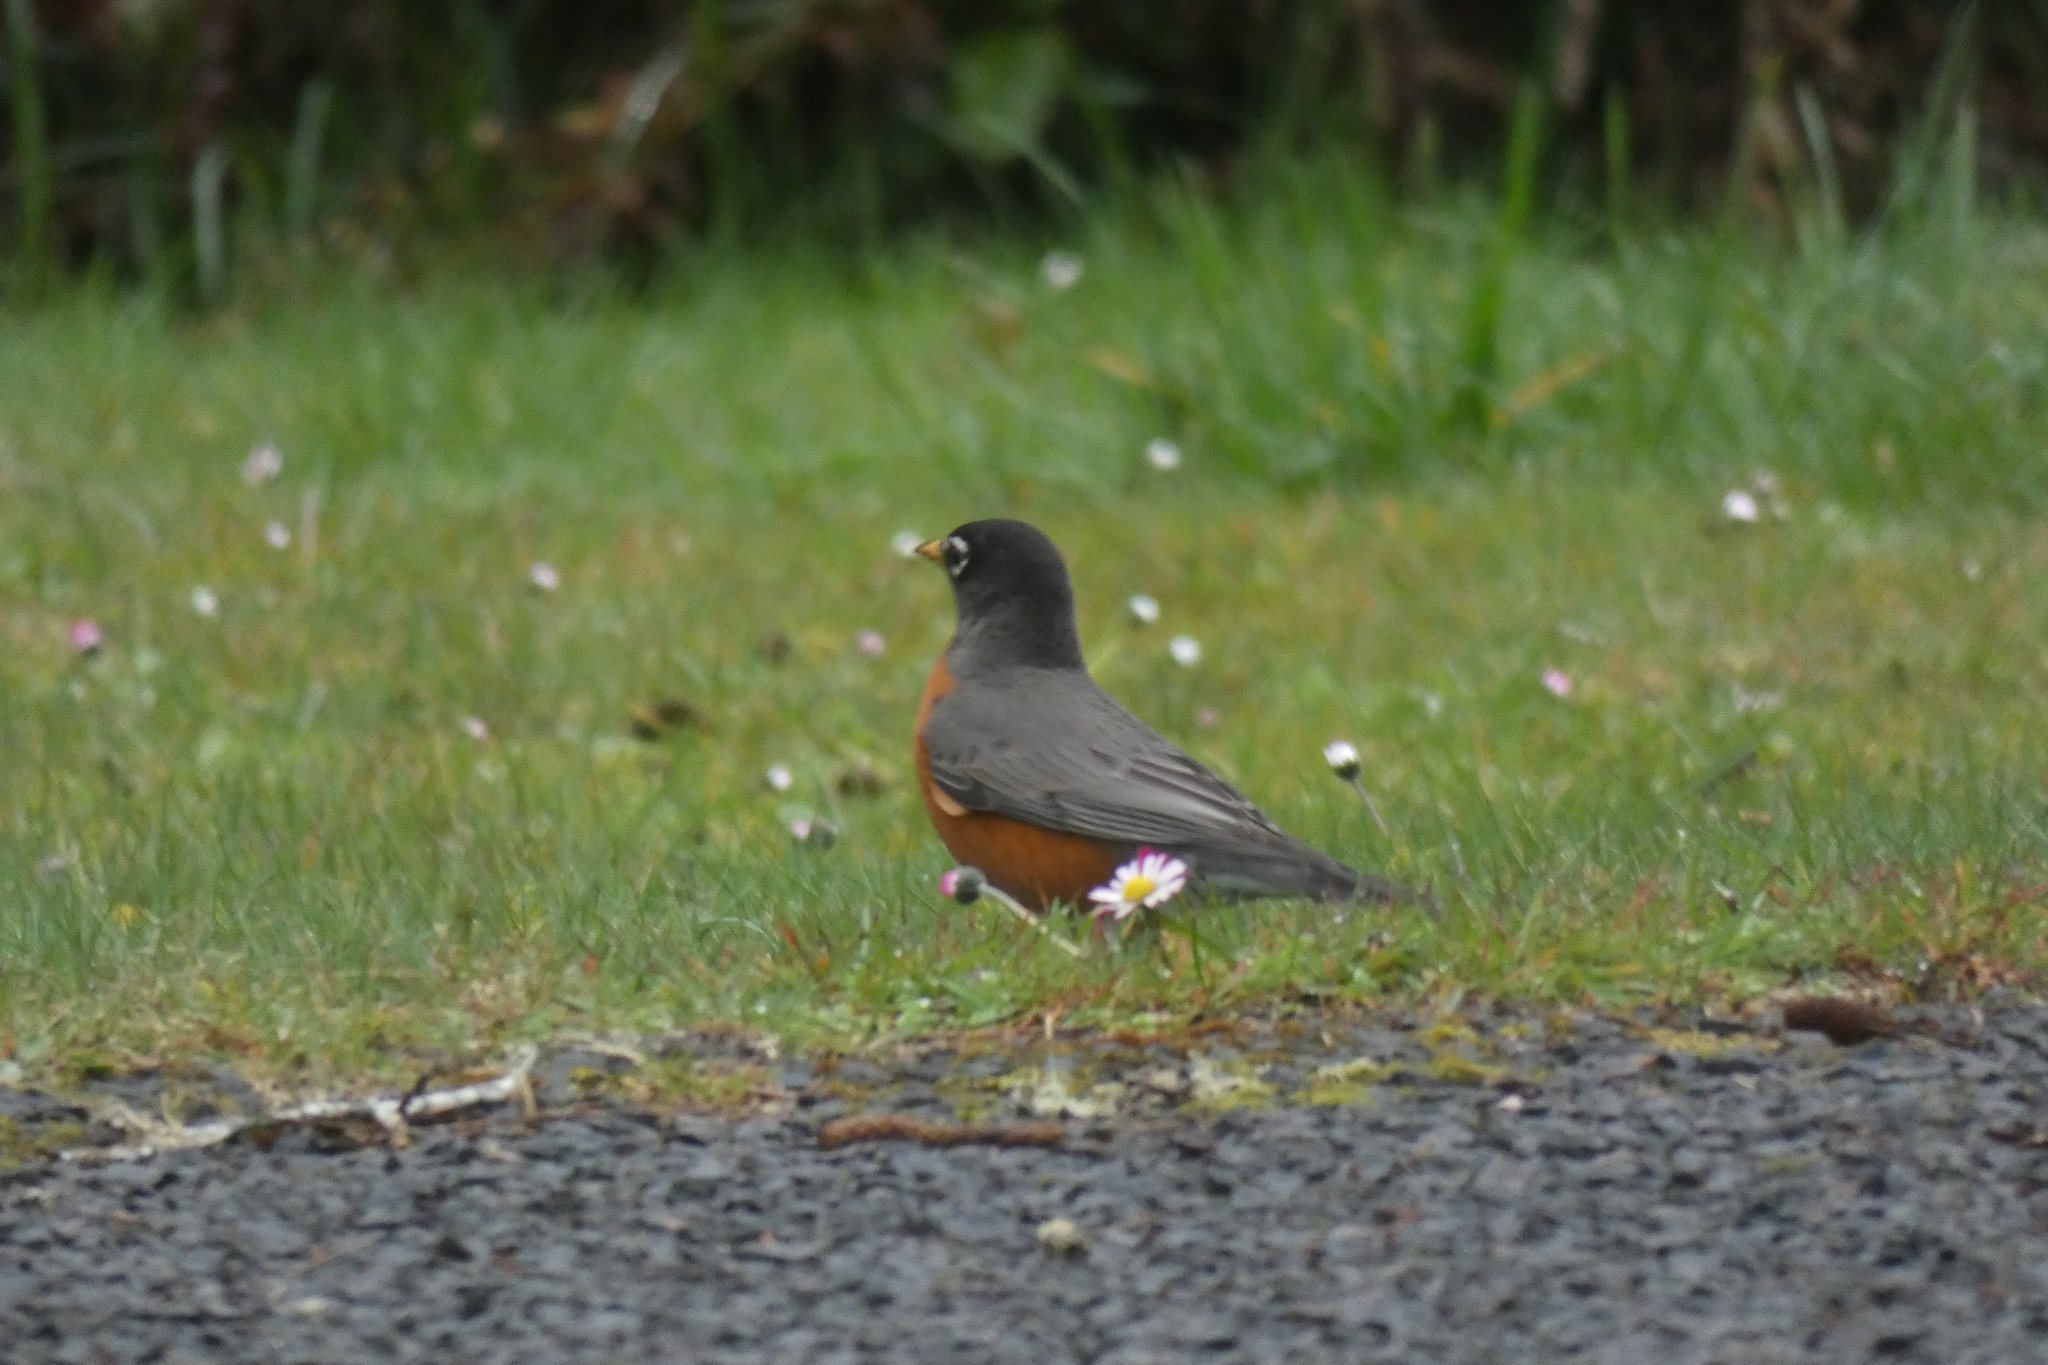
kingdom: Animalia
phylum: Chordata
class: Aves
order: Passeriformes
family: Turdidae
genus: Turdus
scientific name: Turdus migratorius
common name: American robin
